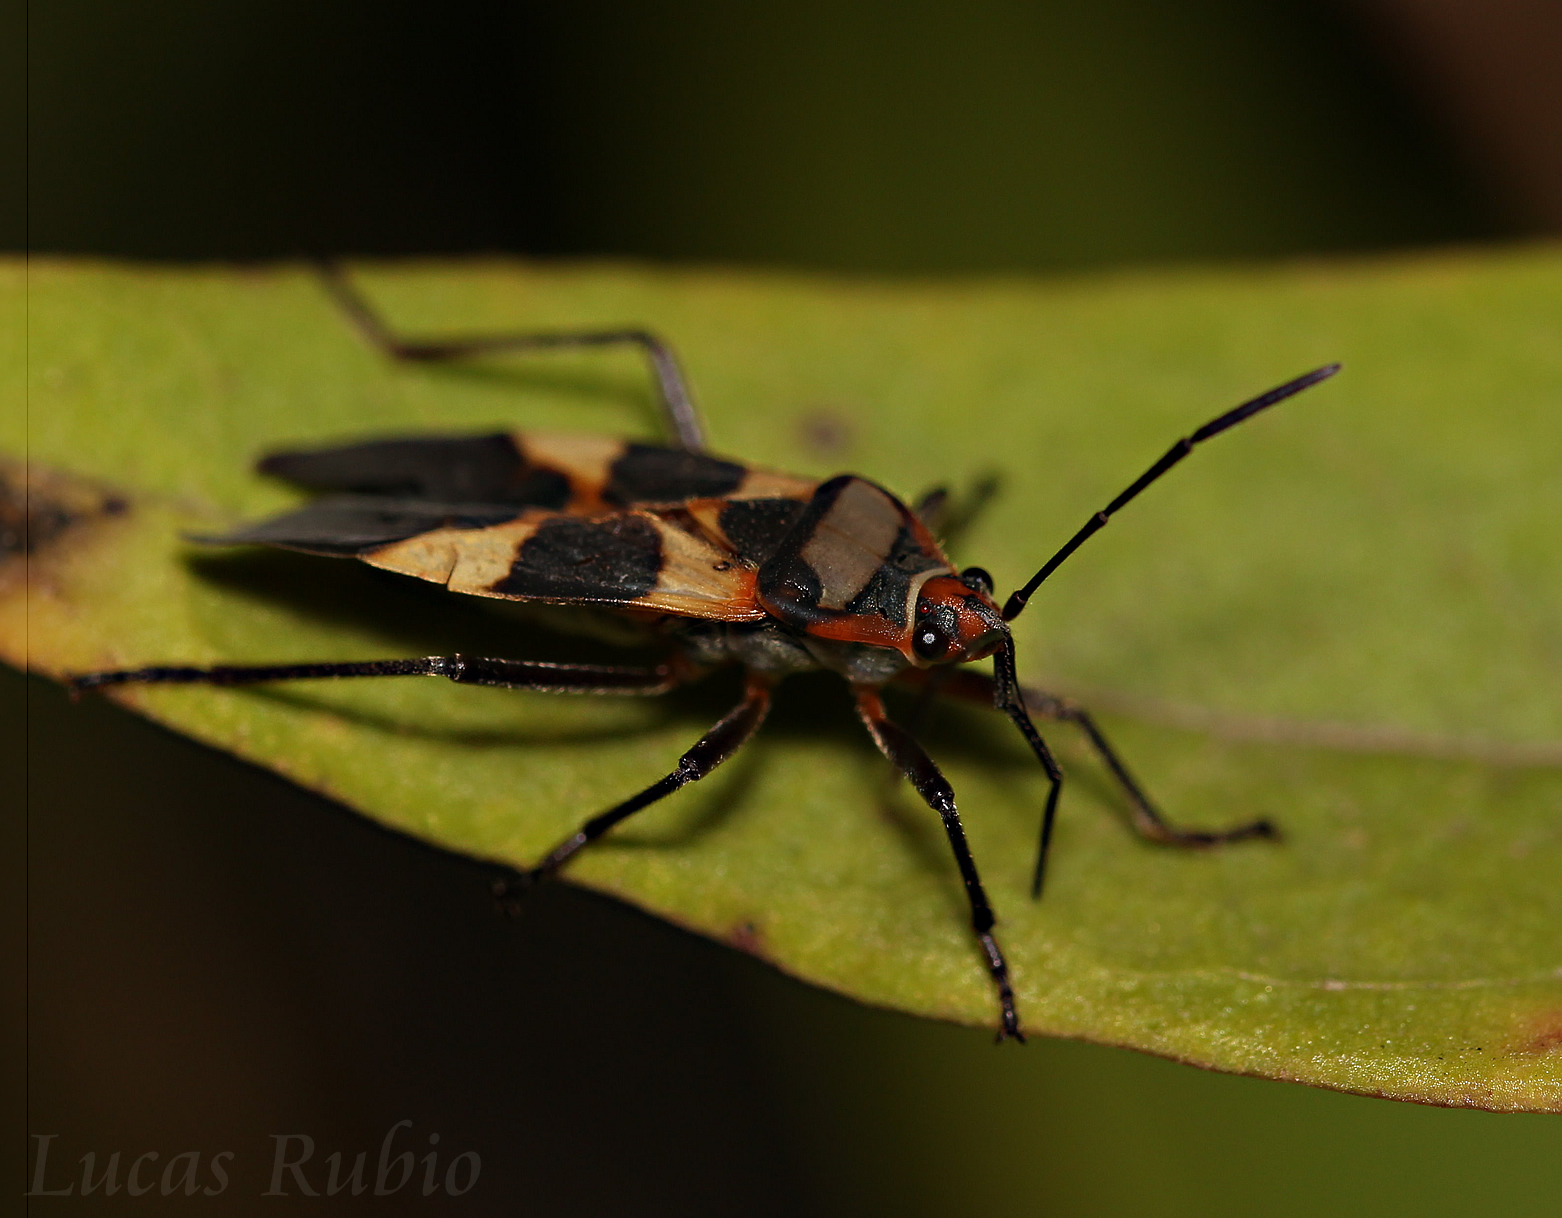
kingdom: Animalia
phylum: Arthropoda
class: Insecta
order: Hemiptera
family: Lygaeidae
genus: Oncopeltus
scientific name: Oncopeltus unifasciatellus
